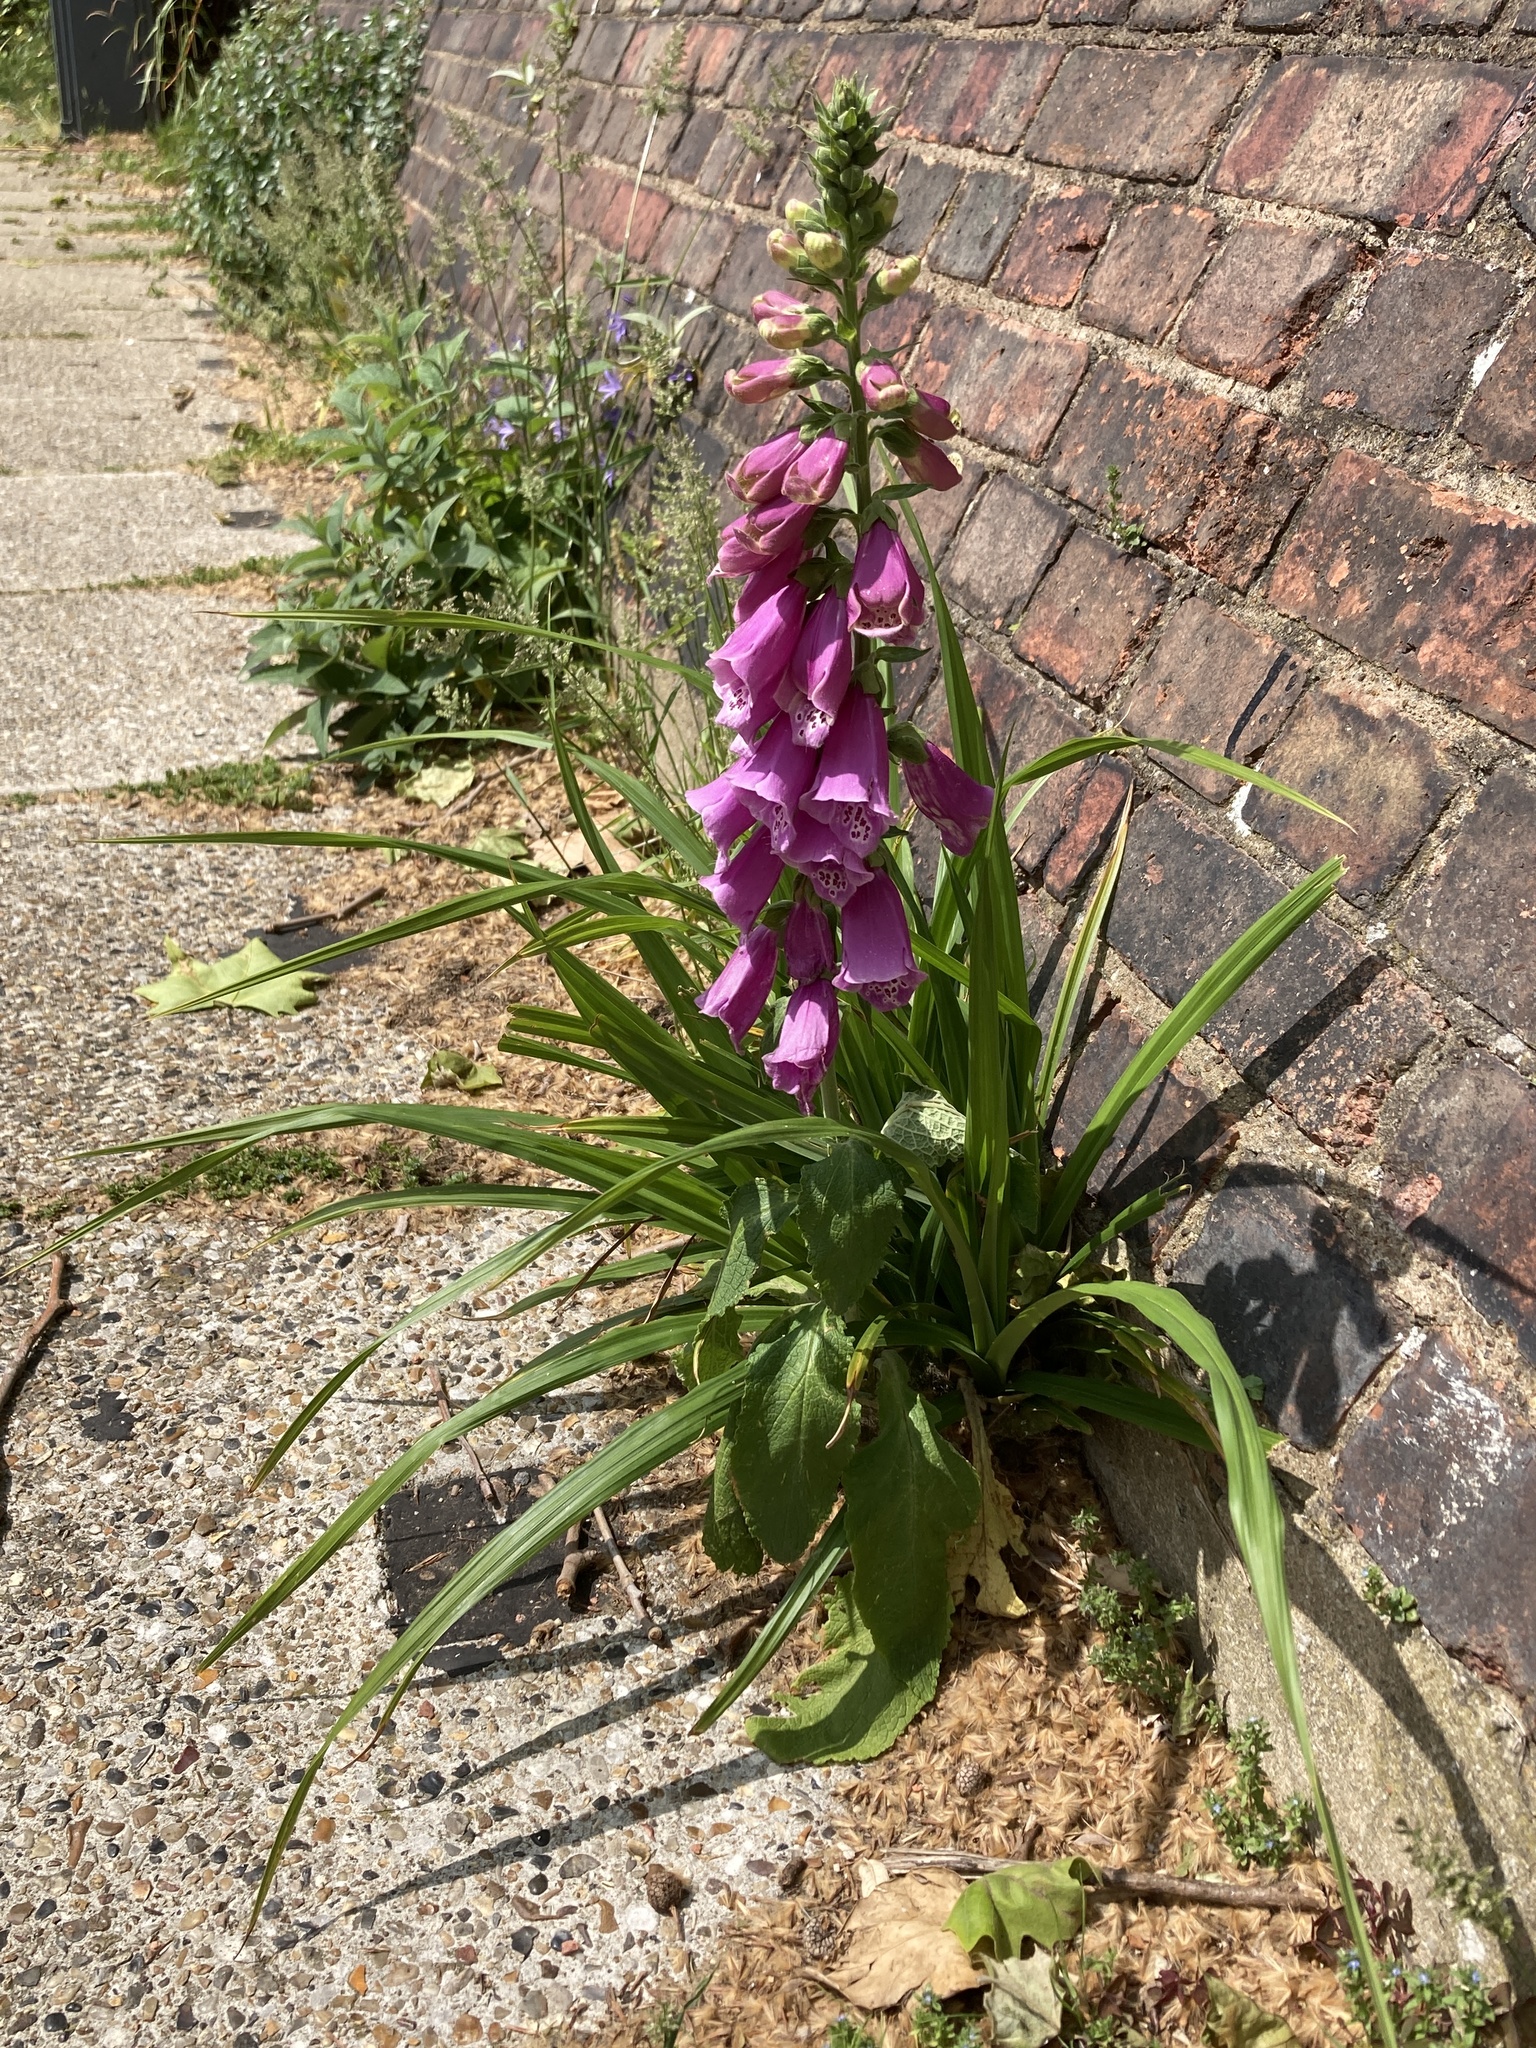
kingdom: Plantae
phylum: Tracheophyta
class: Magnoliopsida
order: Lamiales
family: Plantaginaceae
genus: Digitalis
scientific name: Digitalis purpurea
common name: Foxglove
